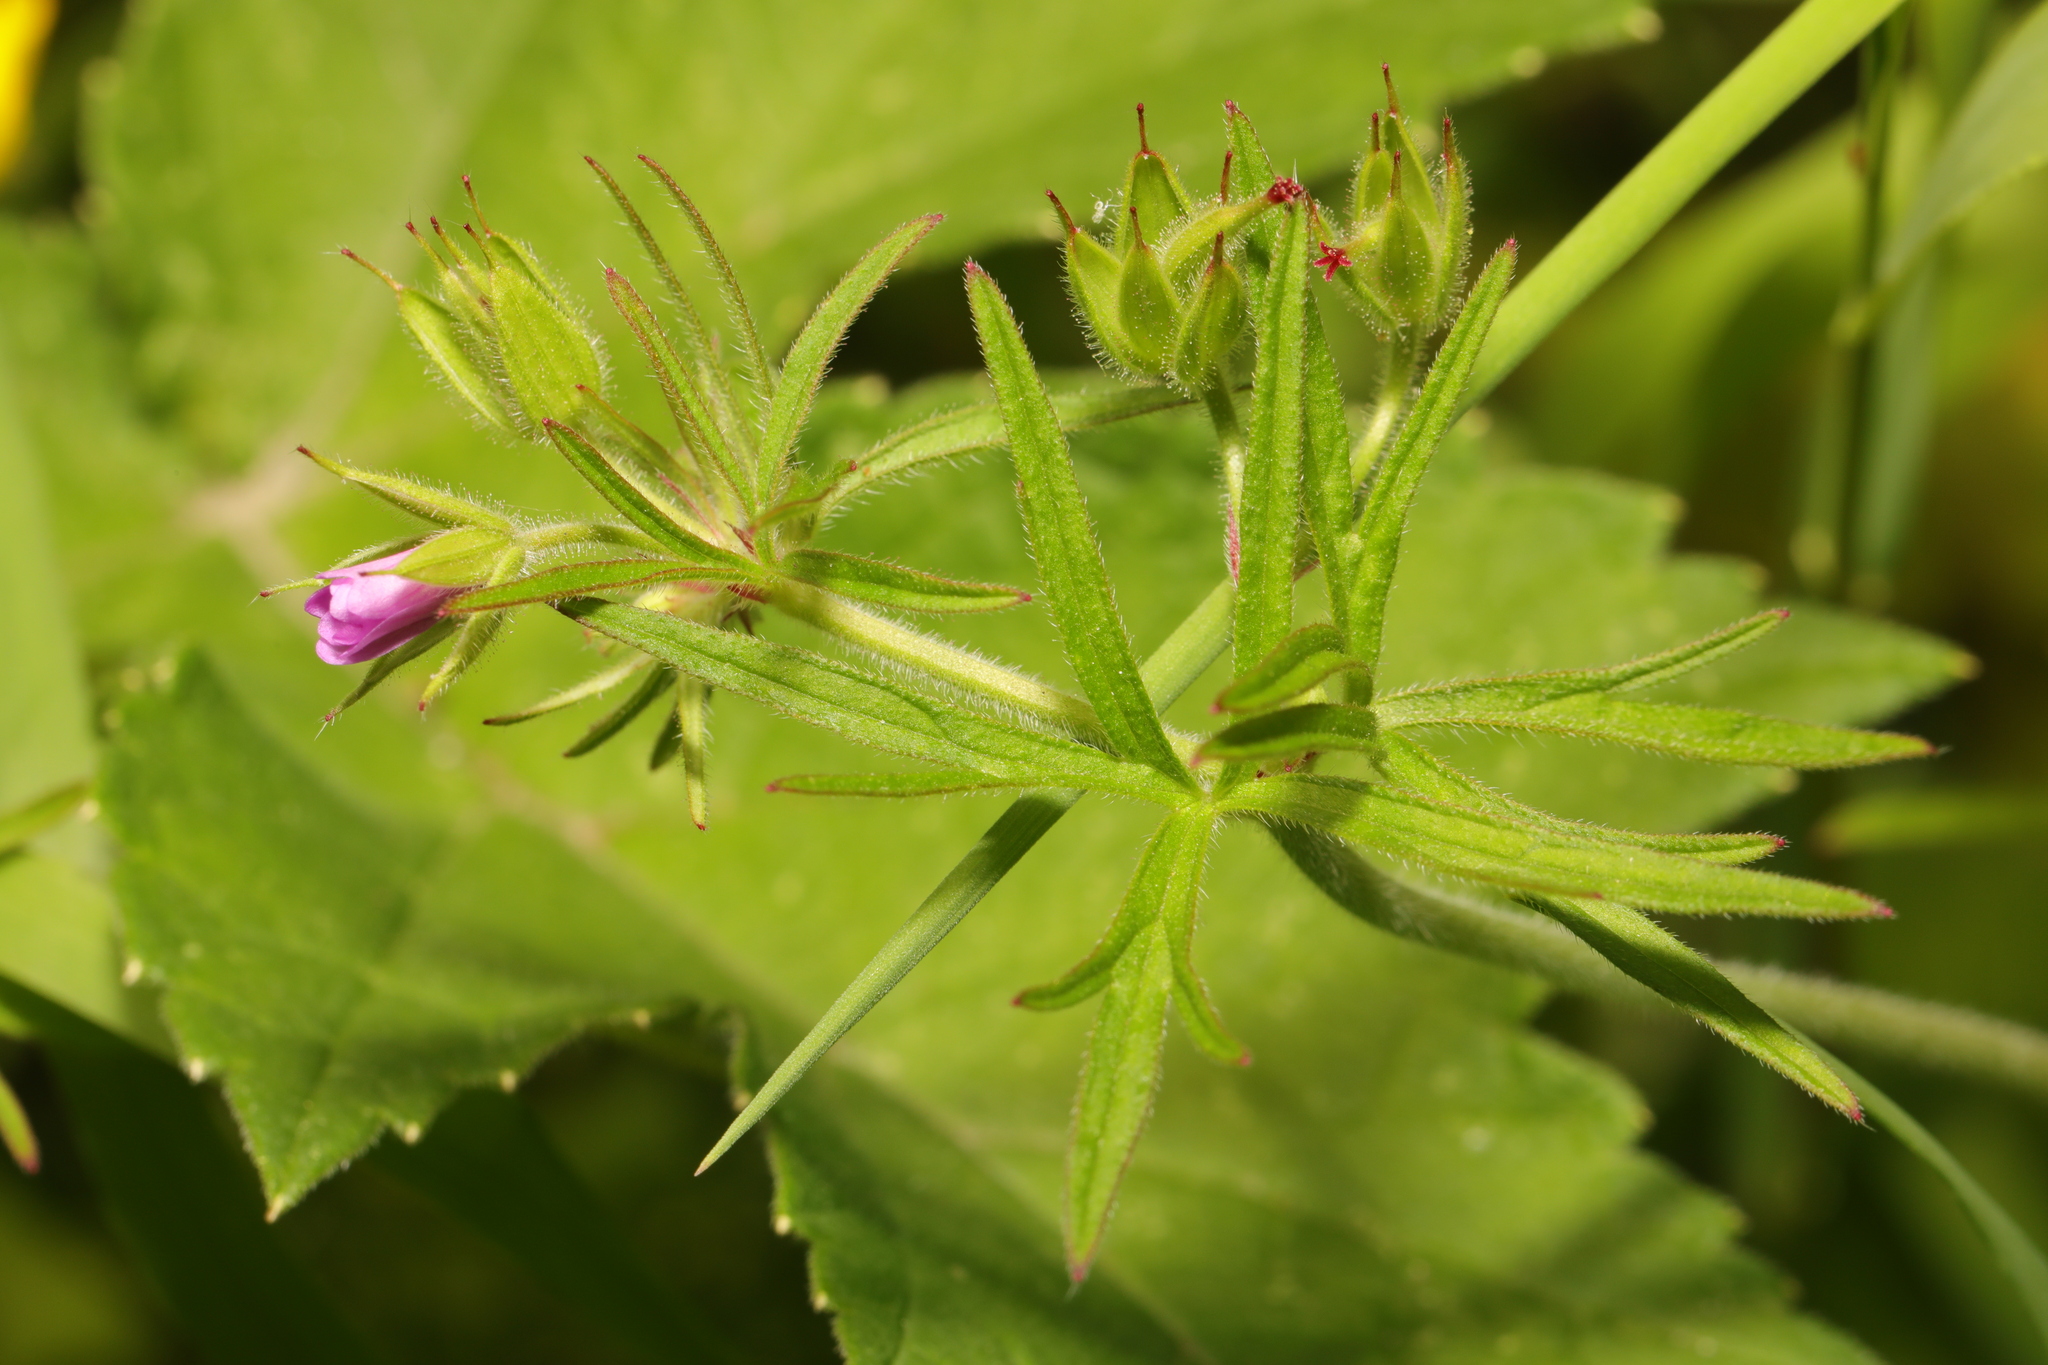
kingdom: Plantae
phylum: Tracheophyta
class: Magnoliopsida
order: Geraniales
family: Geraniaceae
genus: Geranium
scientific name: Geranium dissectum
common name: Cut-leaved crane's-bill
